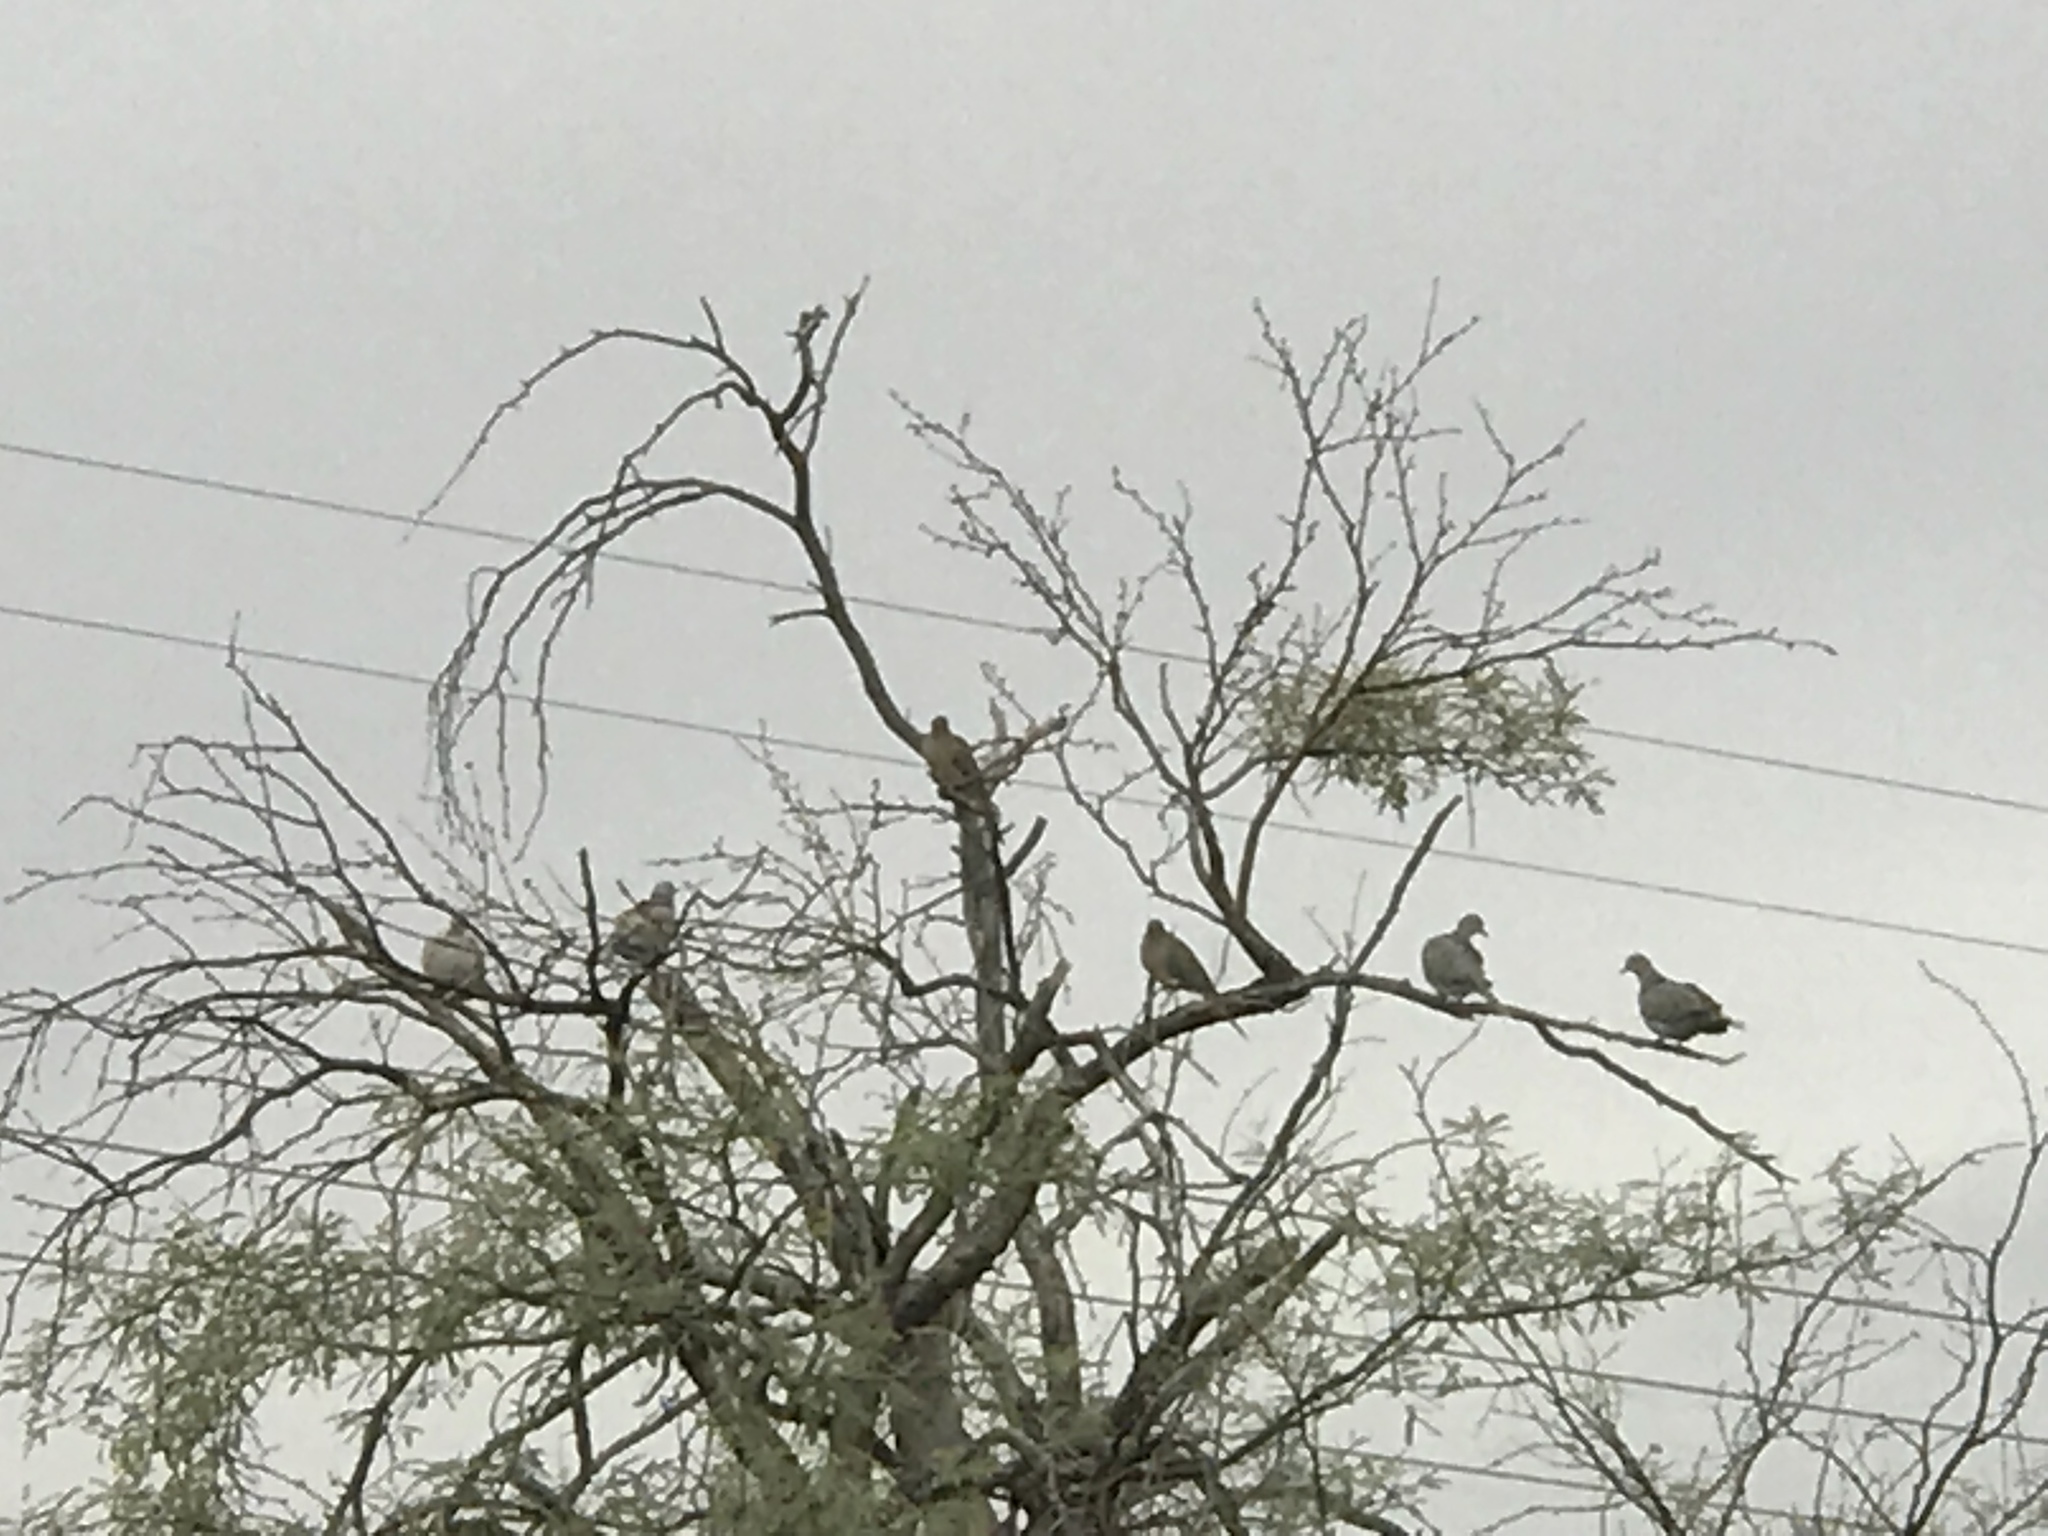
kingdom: Animalia
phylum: Chordata
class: Aves
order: Columbiformes
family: Columbidae
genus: Zenaida
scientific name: Zenaida macroura
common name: Mourning dove
